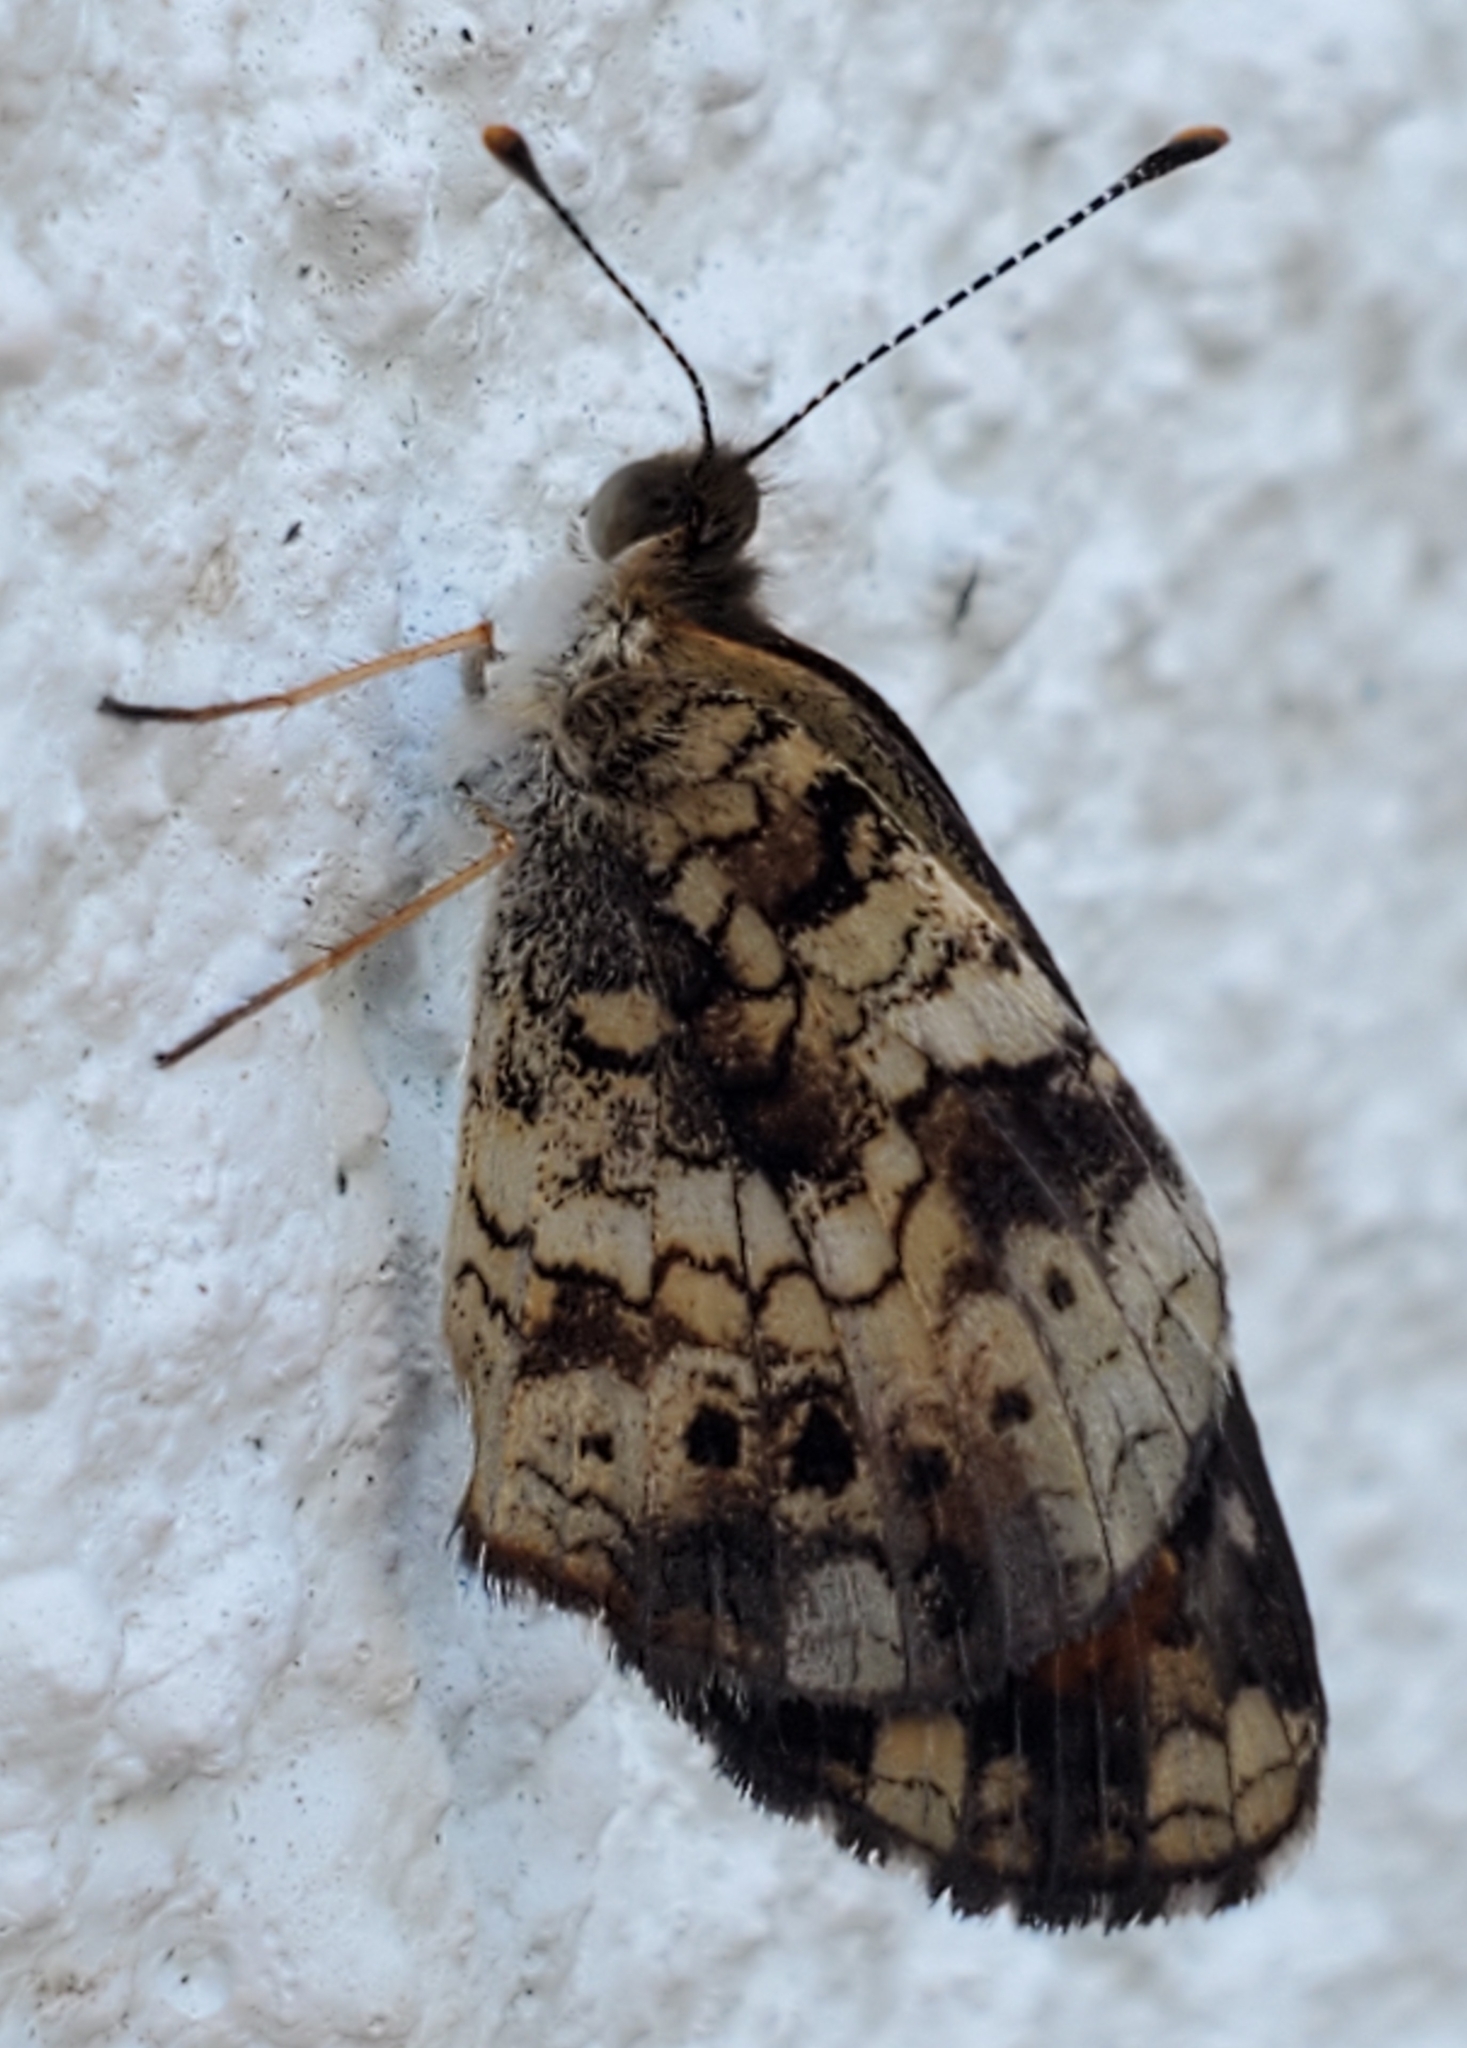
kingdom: Animalia
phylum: Arthropoda
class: Insecta
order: Lepidoptera
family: Nymphalidae
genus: Phyciodes
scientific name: Phyciodes phaon
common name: Phaon crescent
